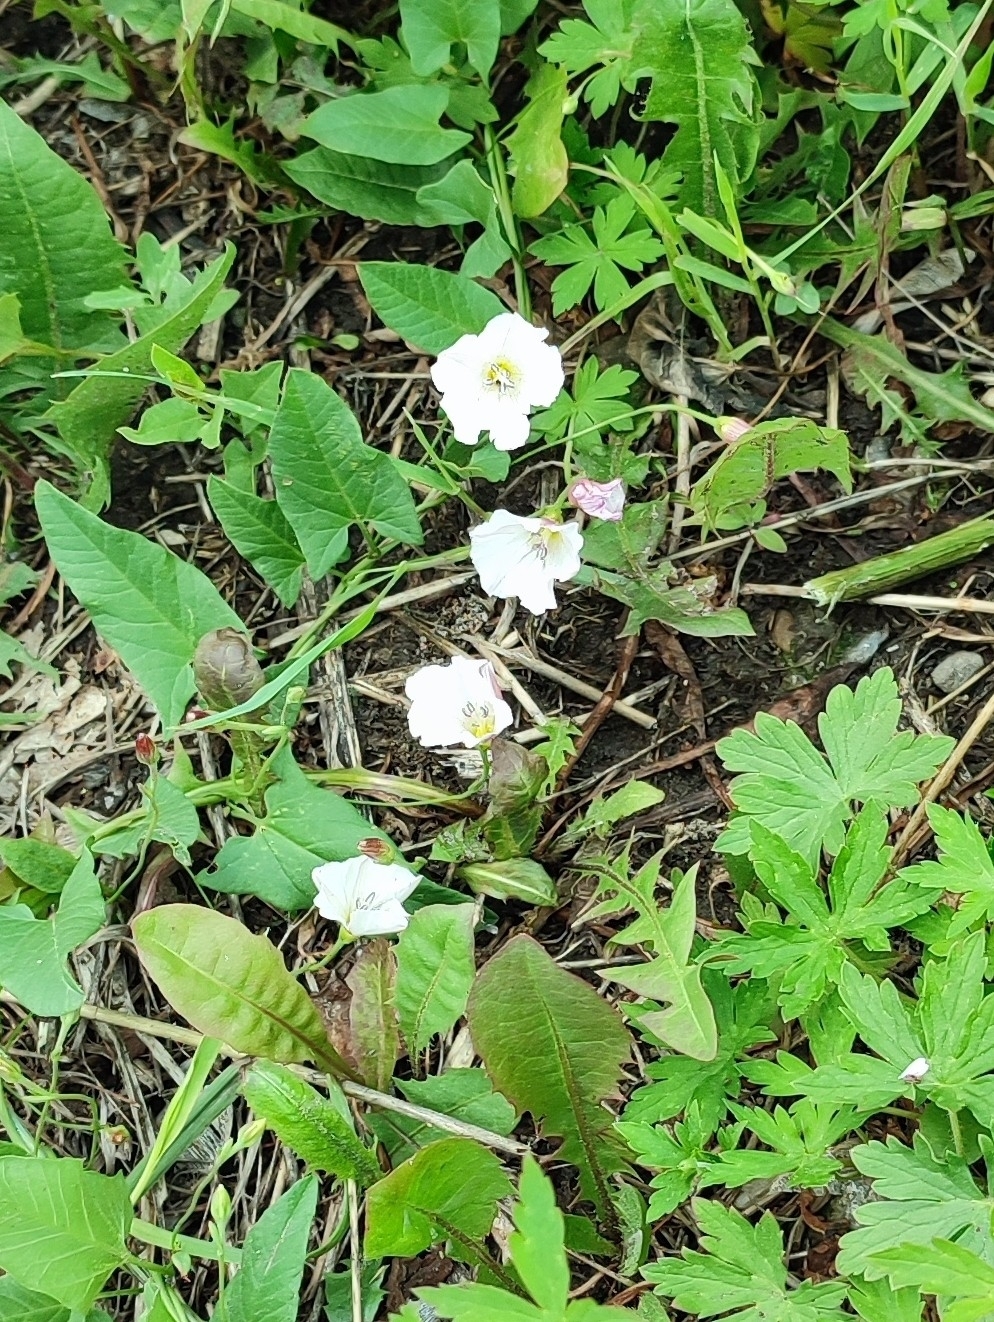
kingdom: Plantae
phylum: Tracheophyta
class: Magnoliopsida
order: Solanales
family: Convolvulaceae
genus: Convolvulus
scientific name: Convolvulus arvensis
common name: Field bindweed
